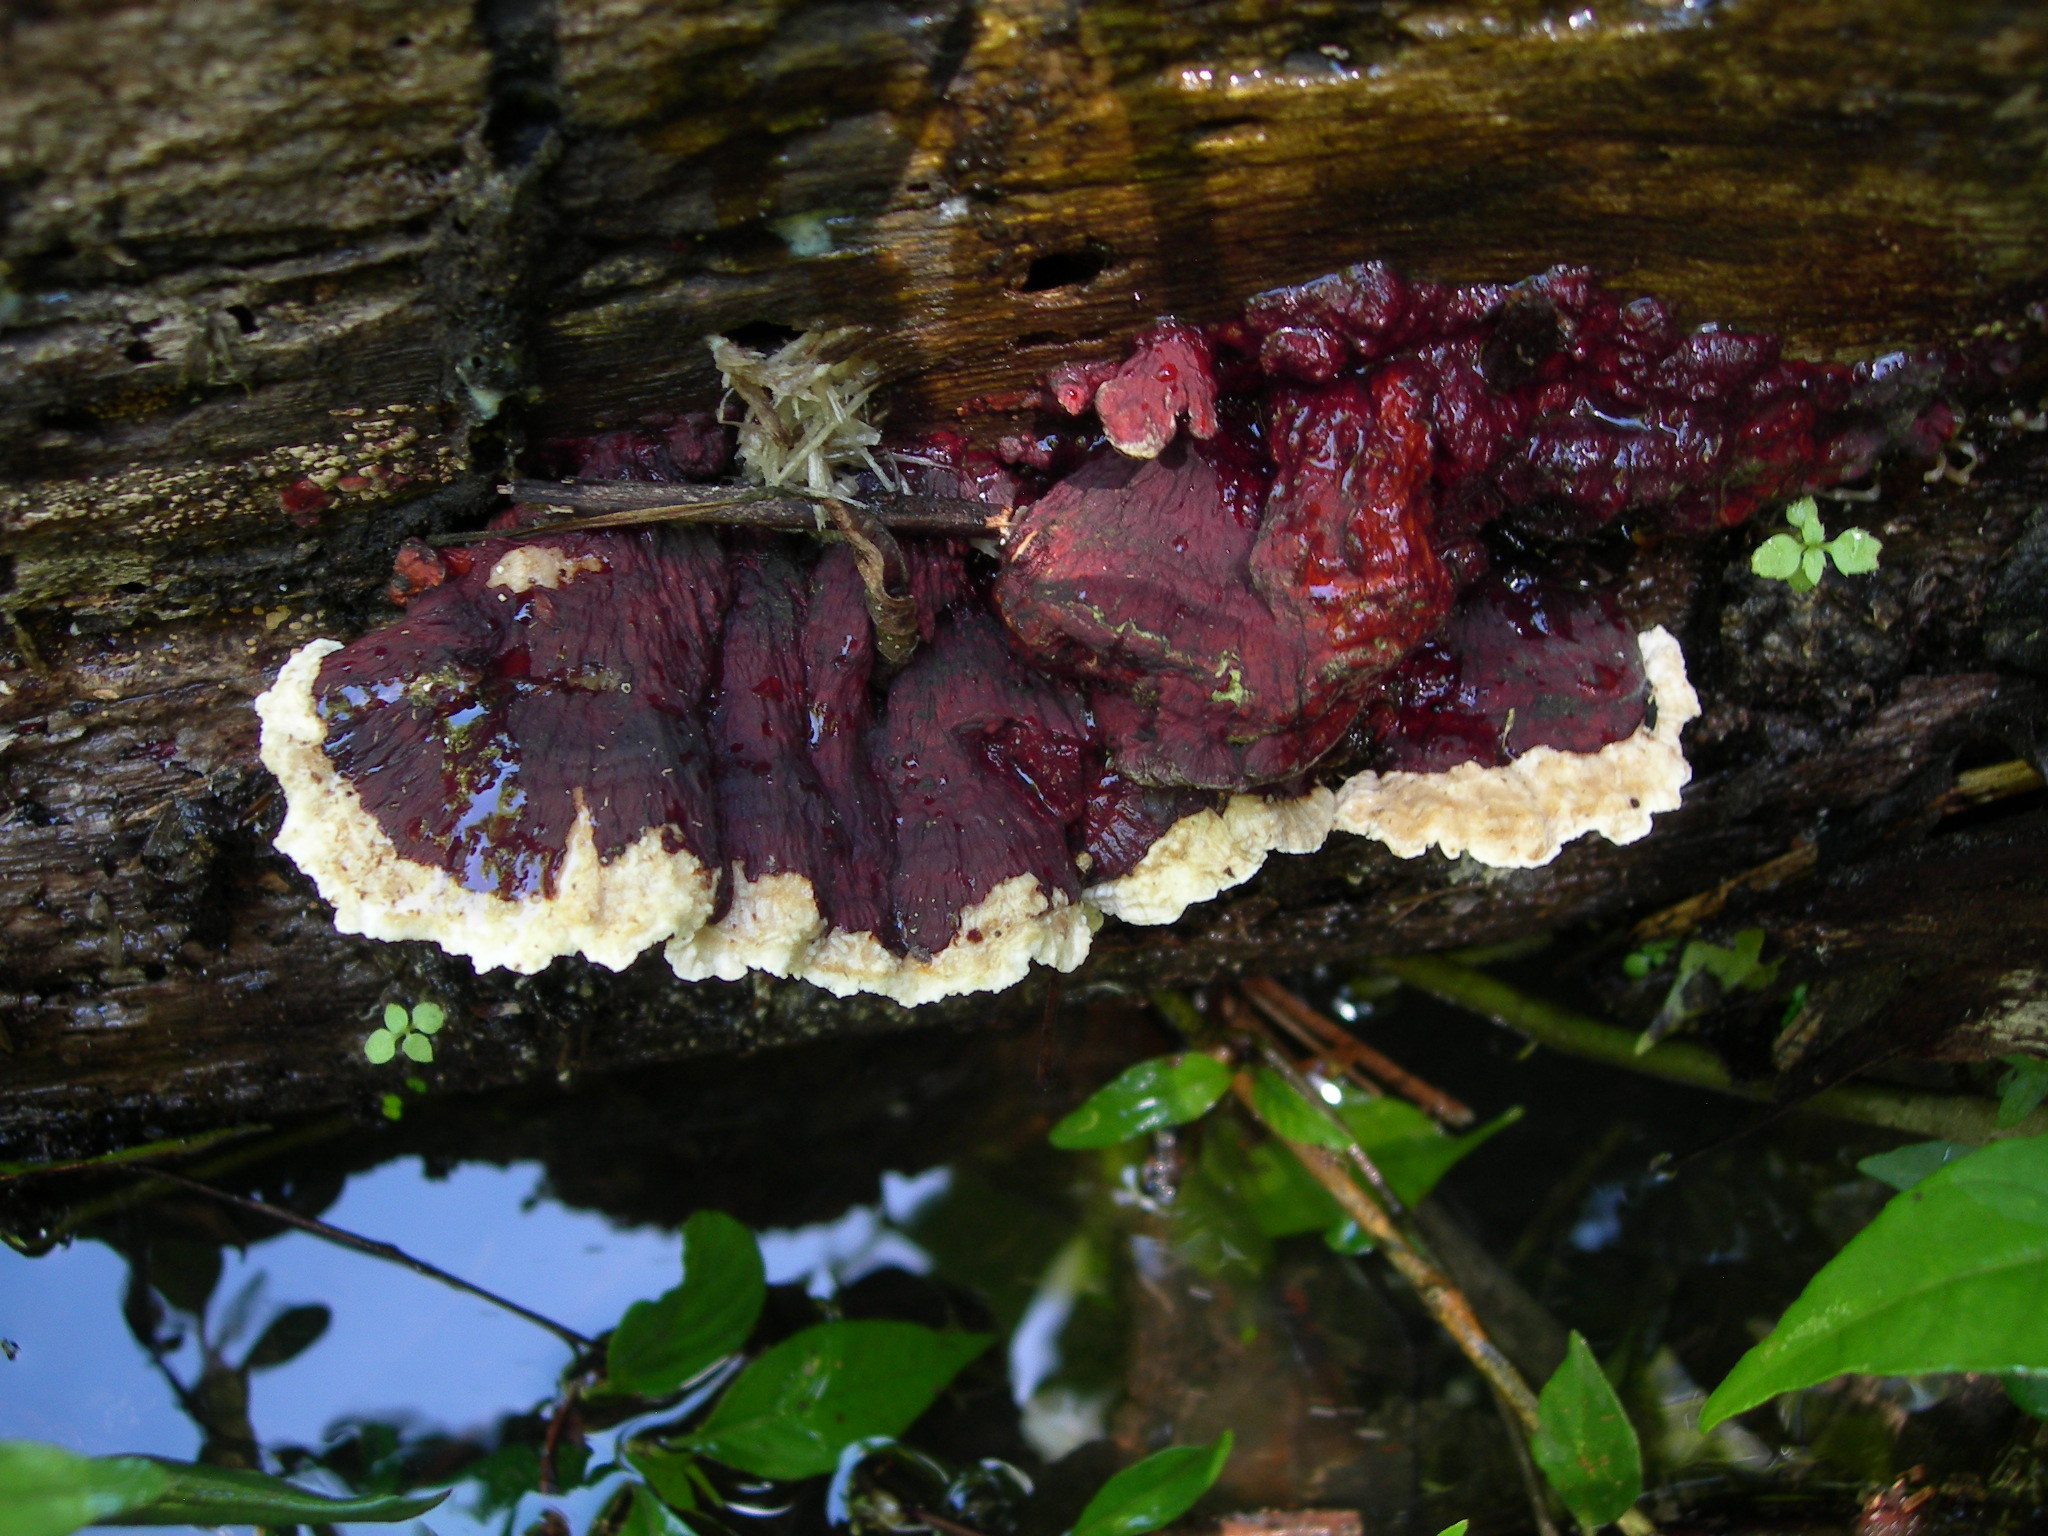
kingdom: Fungi
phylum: Basidiomycota
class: Agaricomycetes
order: Polyporales
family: Polyporaceae
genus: Earliella
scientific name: Earliella scabrosa
